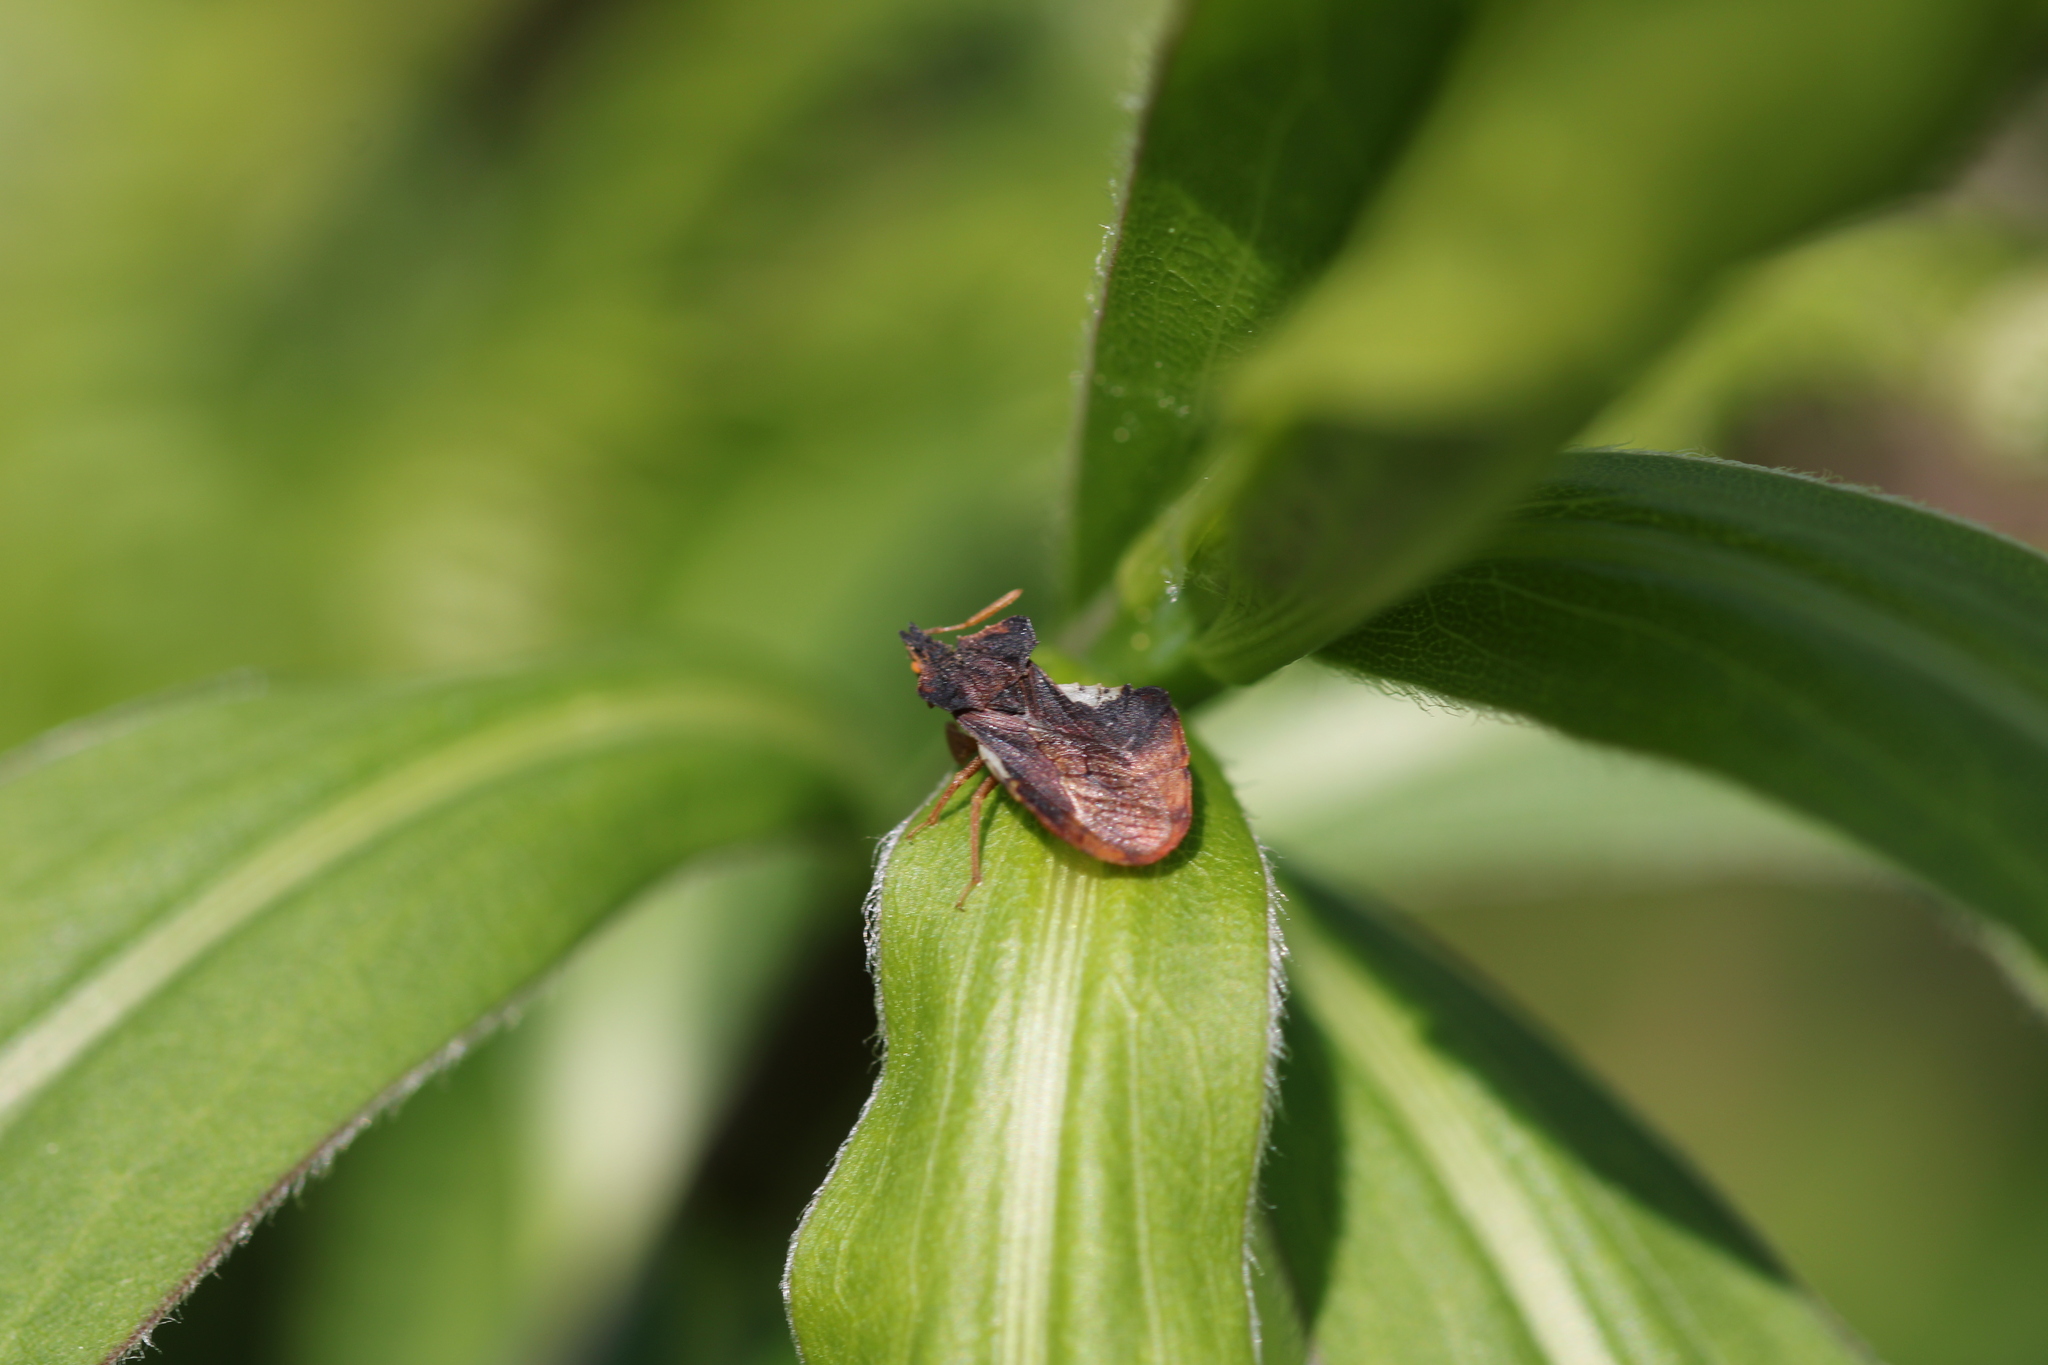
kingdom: Animalia
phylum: Arthropoda
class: Insecta
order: Hemiptera
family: Reduviidae
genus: Phymata
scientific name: Phymata crassipes
